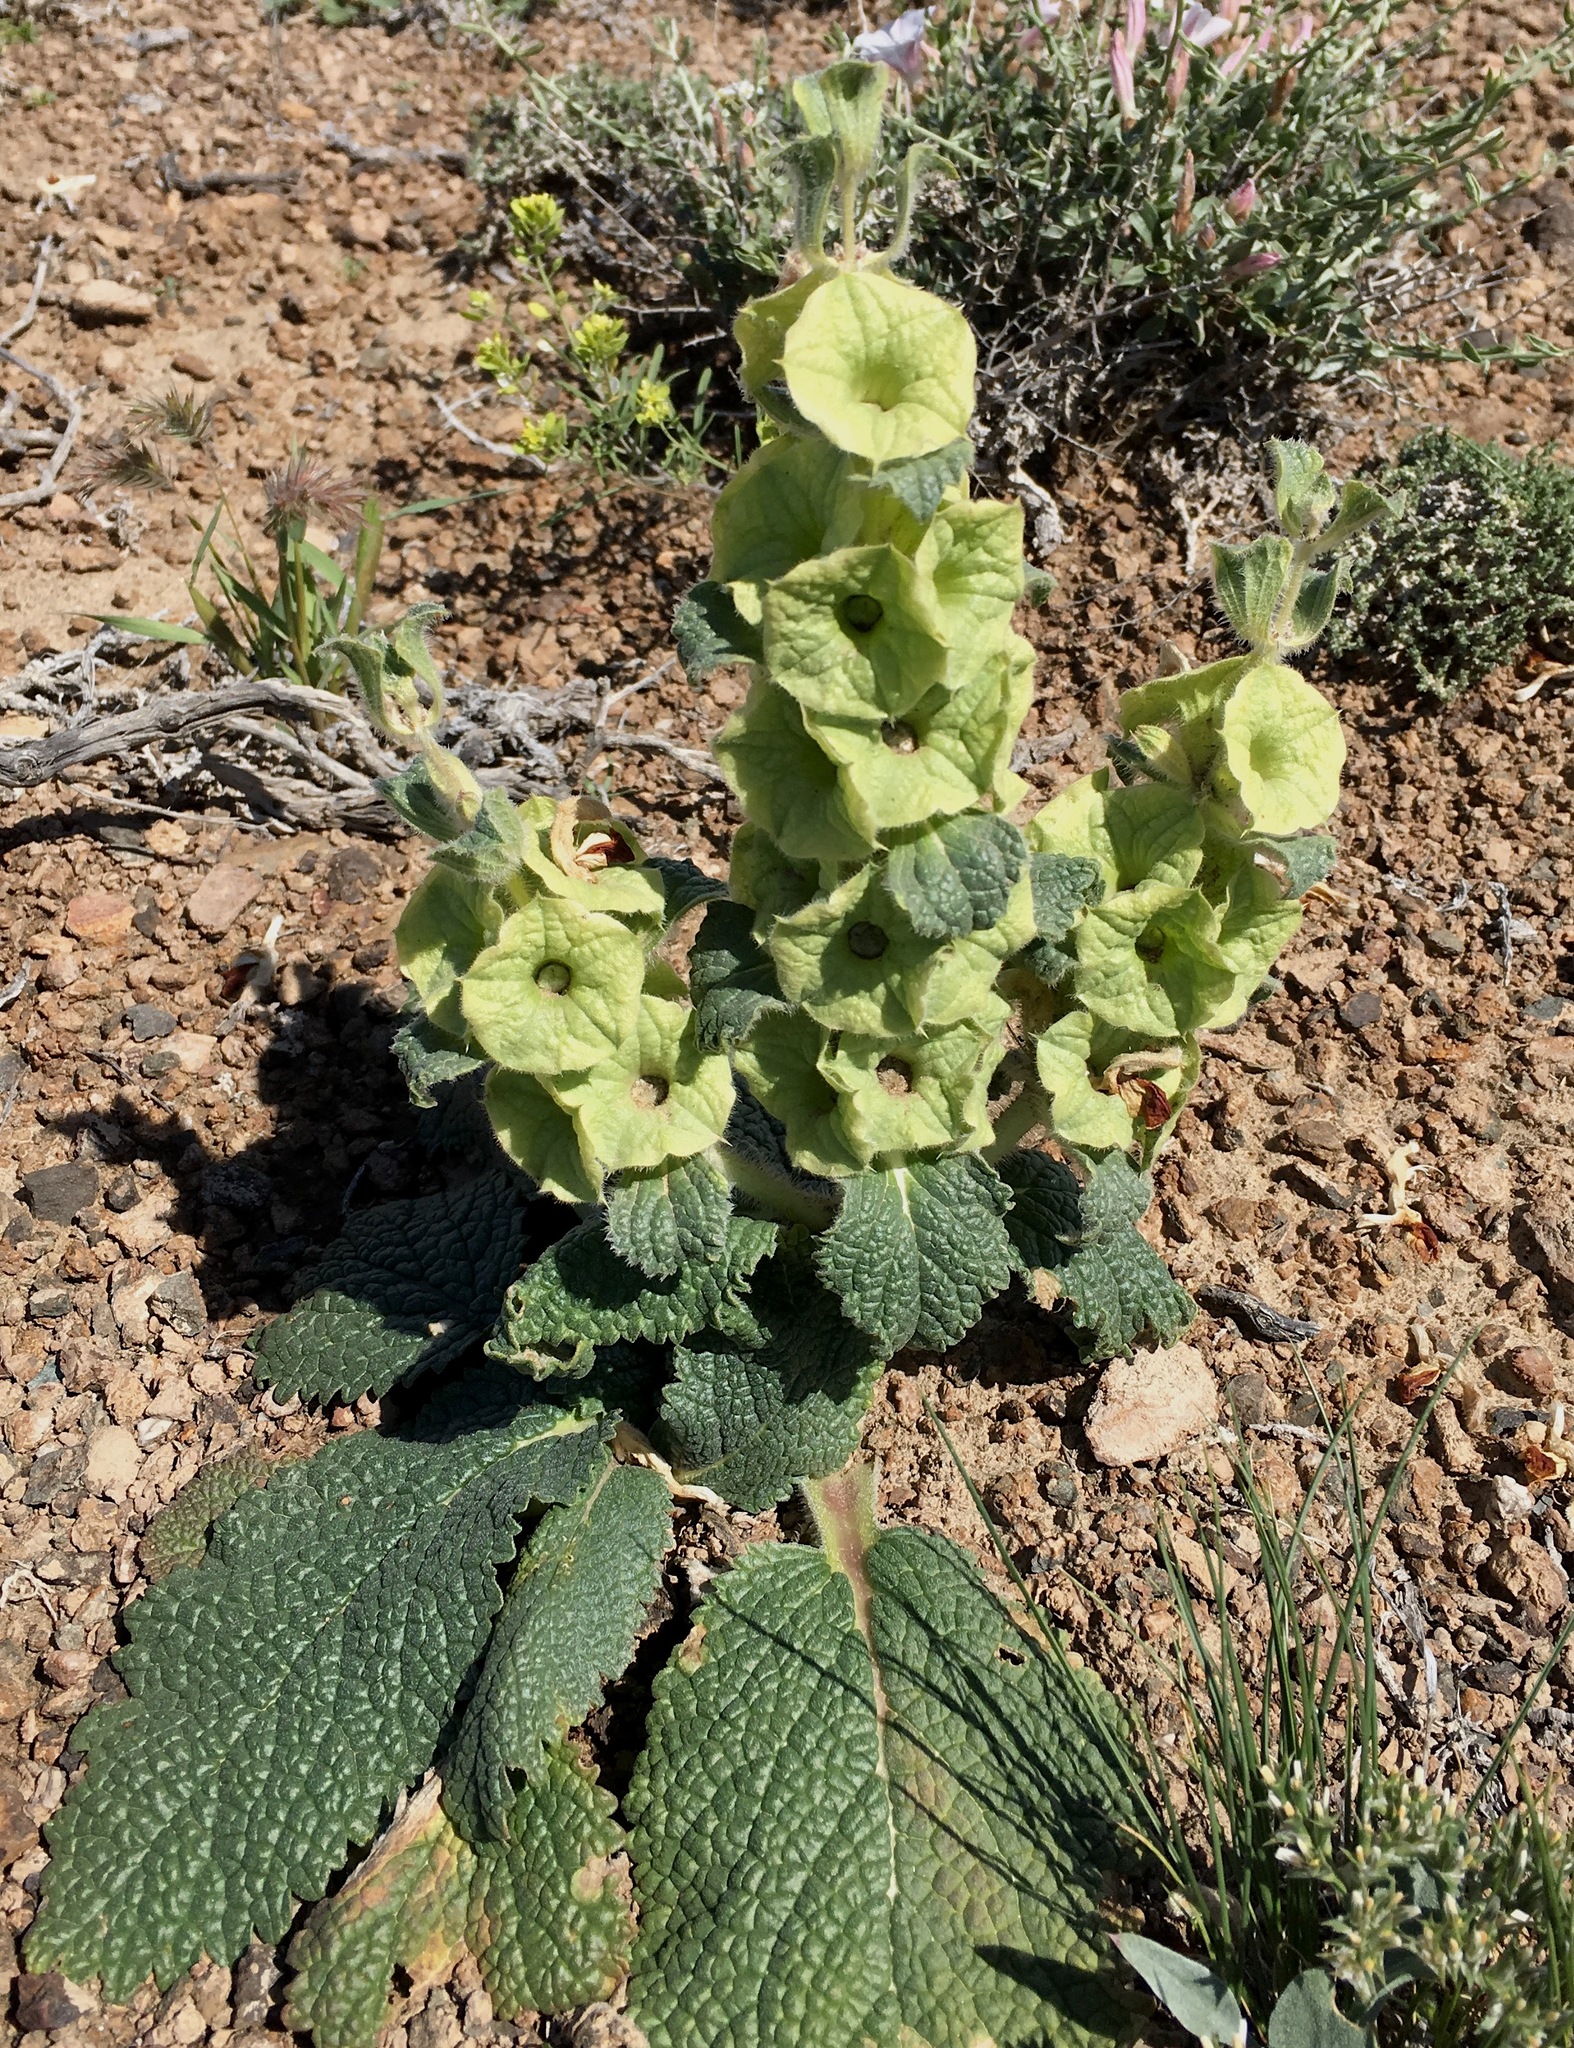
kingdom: Plantae
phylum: Tracheophyta
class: Magnoliopsida
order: Lamiales
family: Lamiaceae
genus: Phlomoides
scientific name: Phlomoides isochila
